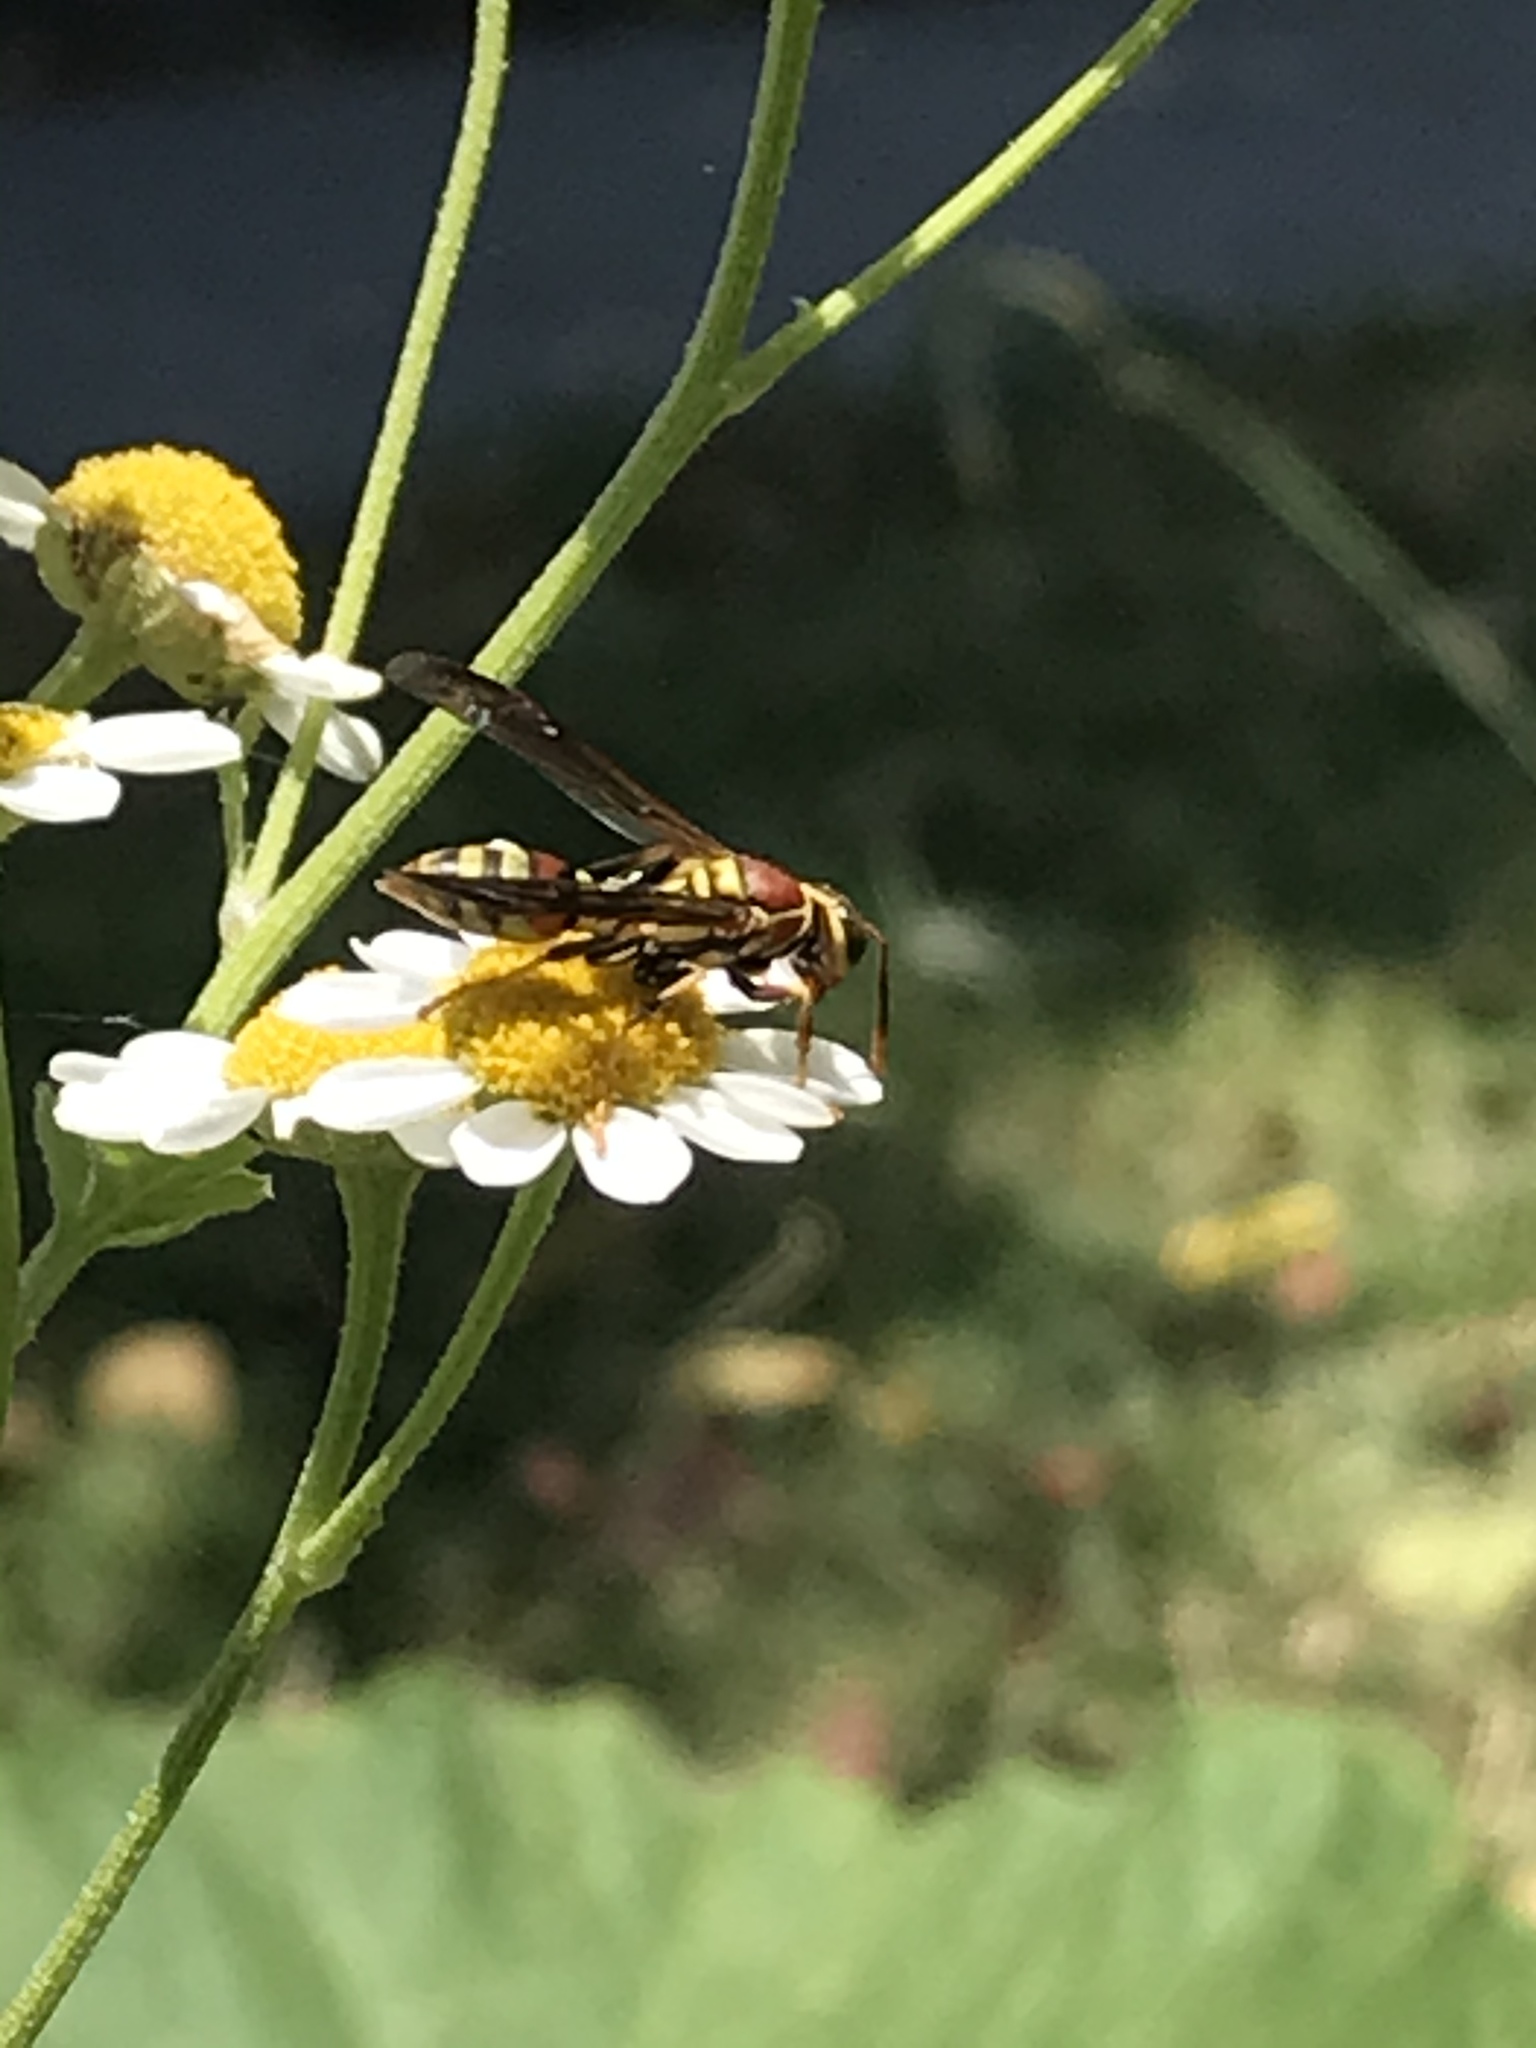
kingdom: Animalia
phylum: Arthropoda
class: Insecta
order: Hymenoptera
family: Eumenidae
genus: Polistes
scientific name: Polistes exclamans
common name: Paper wasp
